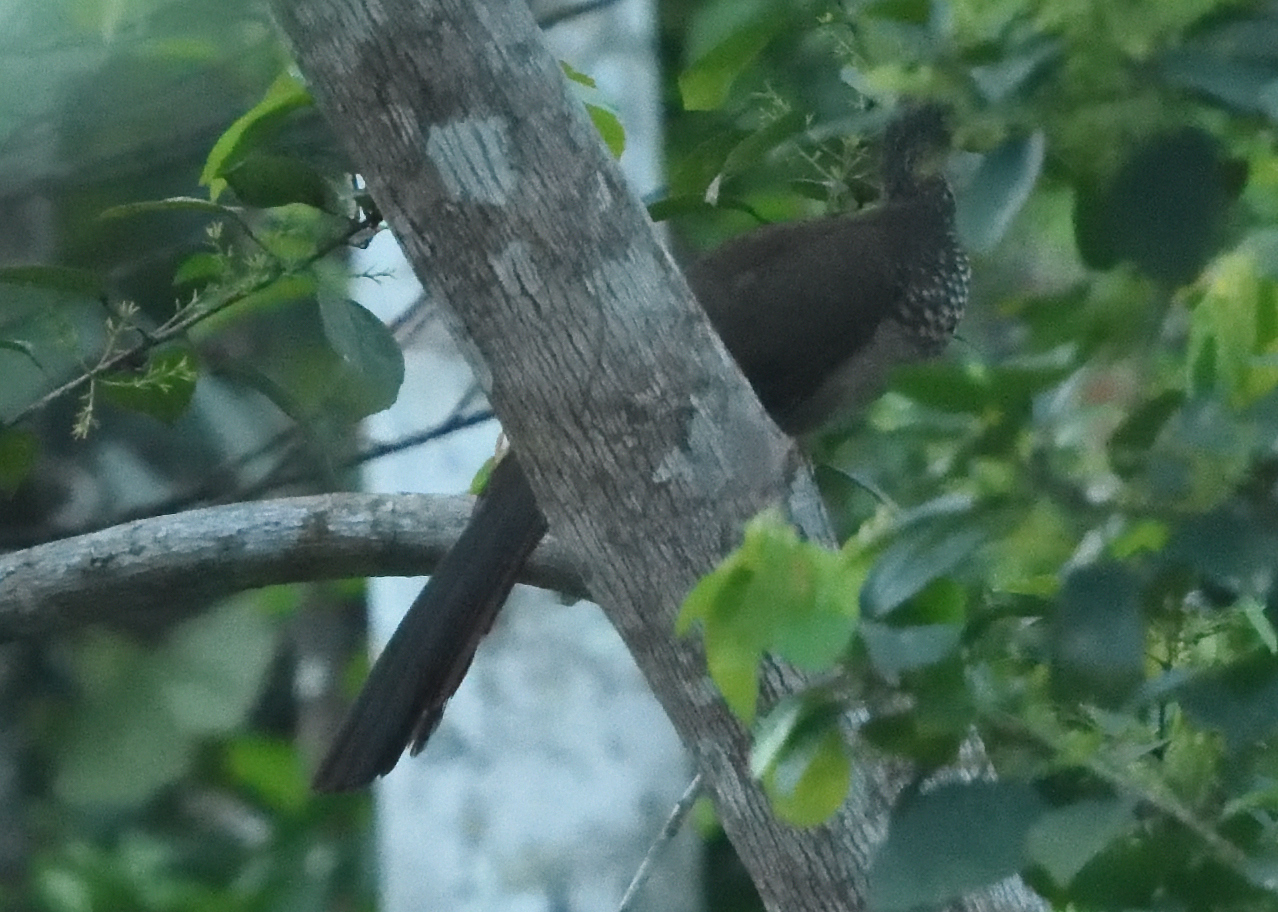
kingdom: Animalia
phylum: Chordata
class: Aves
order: Galliformes
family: Cracidae
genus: Ortalis
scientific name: Ortalis guttata
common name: Speckled chachalaca
